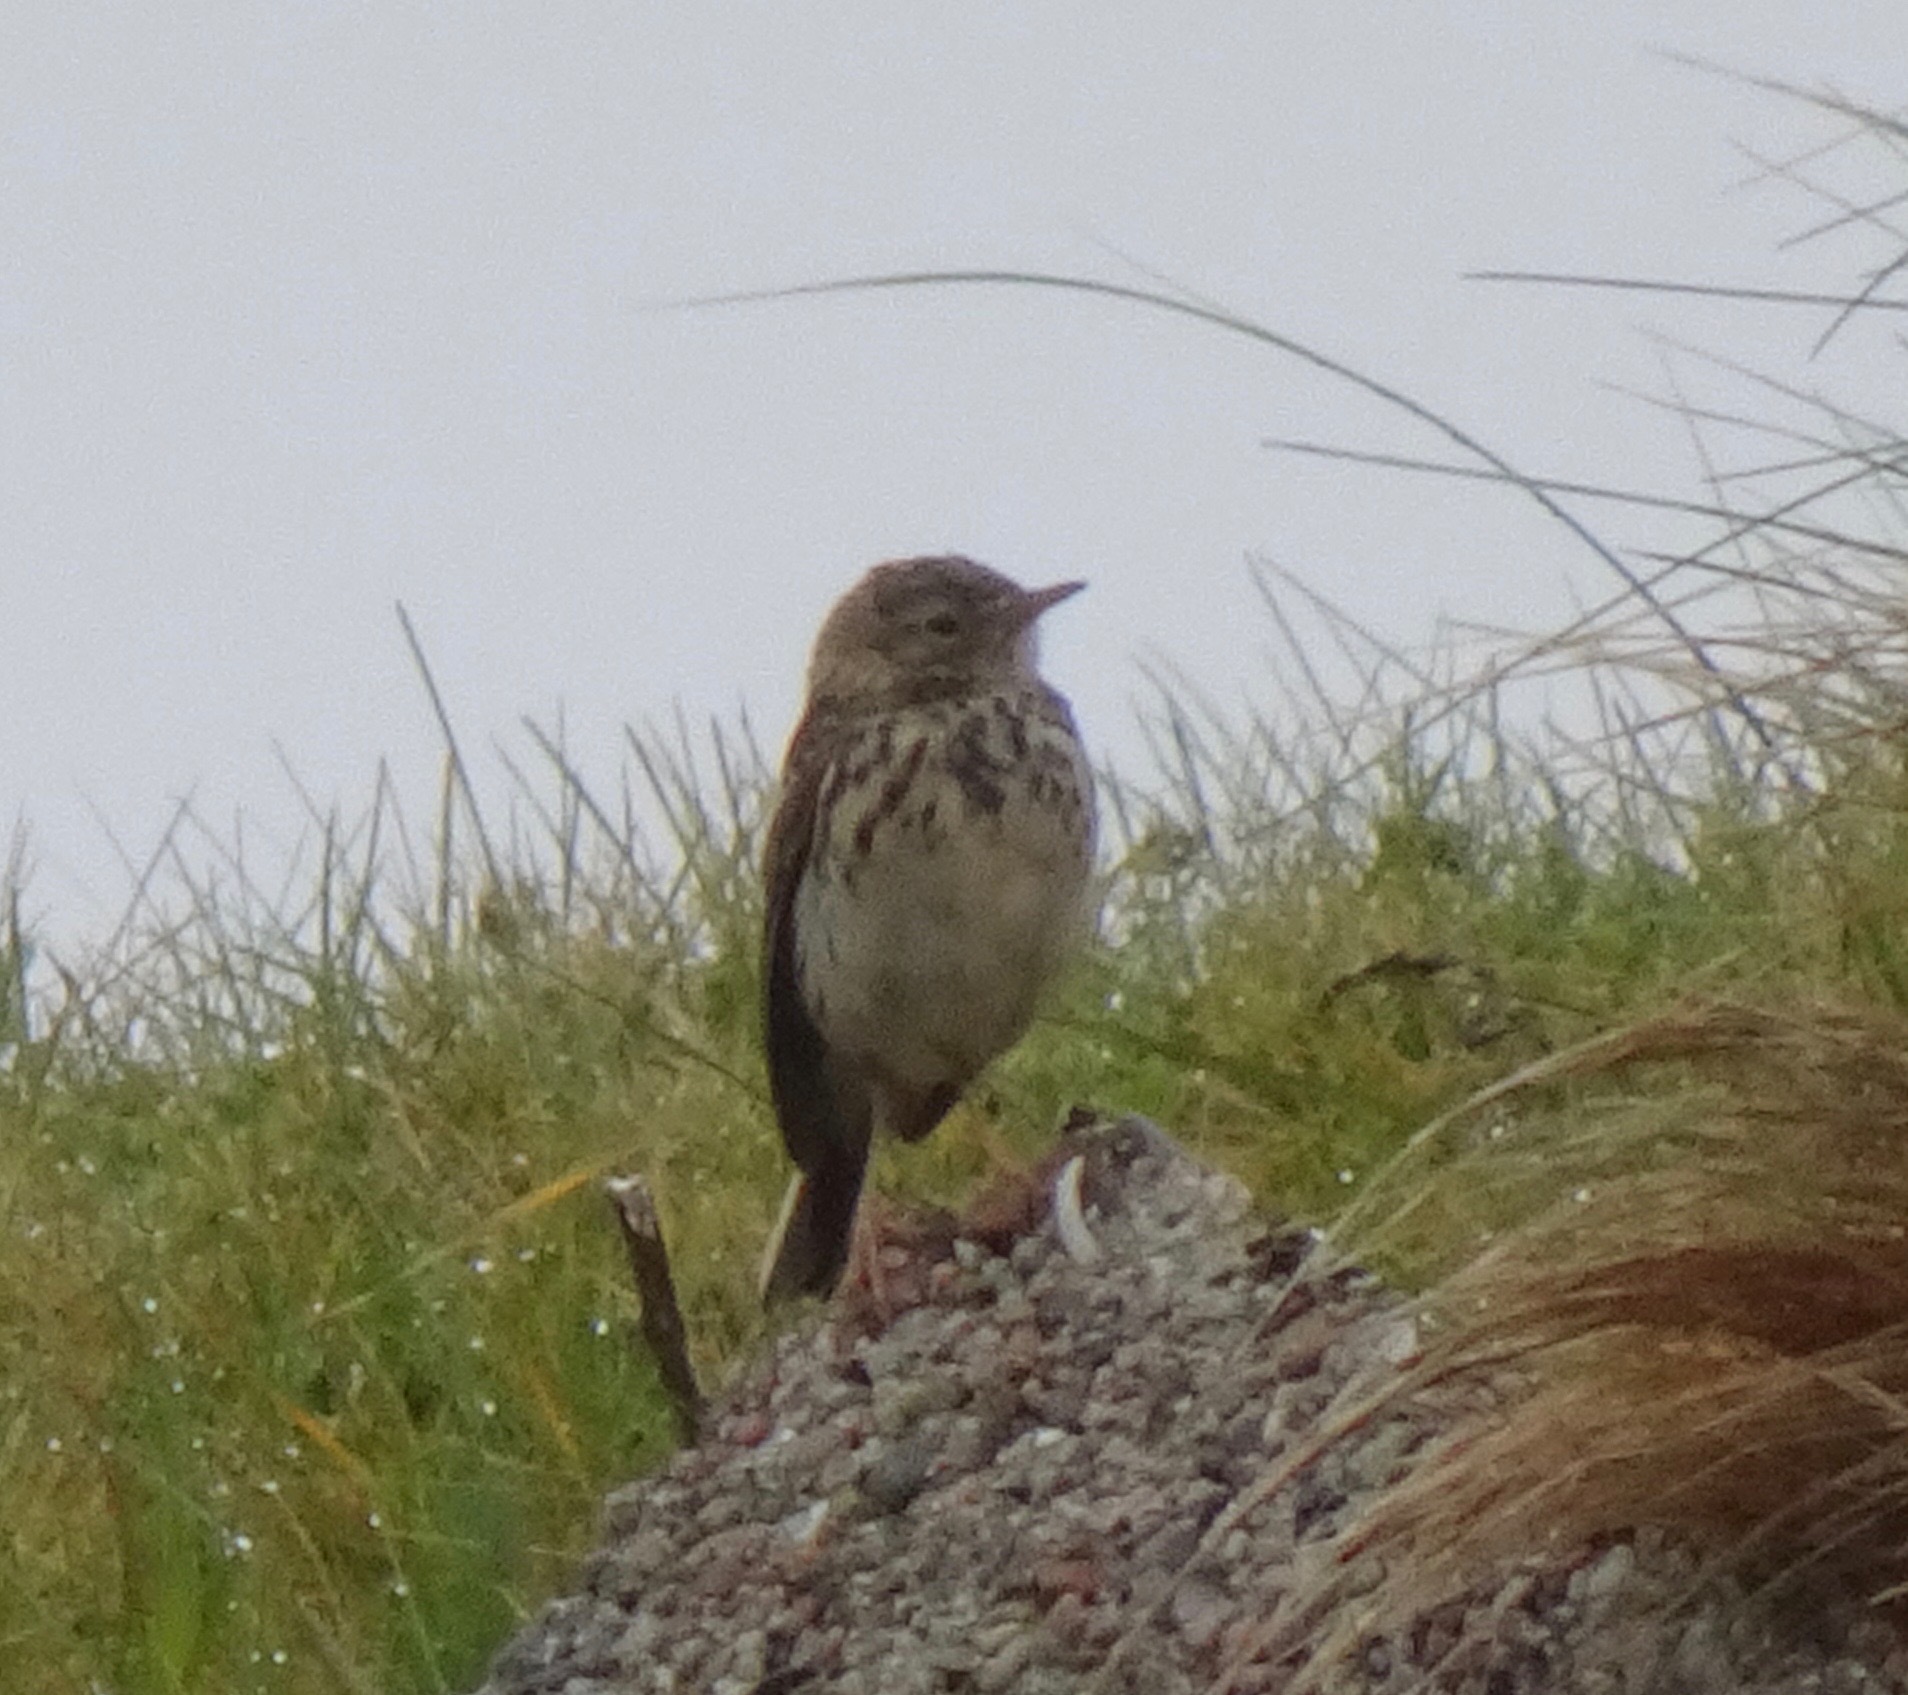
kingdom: Animalia
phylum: Chordata
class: Aves
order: Passeriformes
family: Motacillidae
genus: Anthus
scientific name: Anthus pratensis
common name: Meadow pipit
